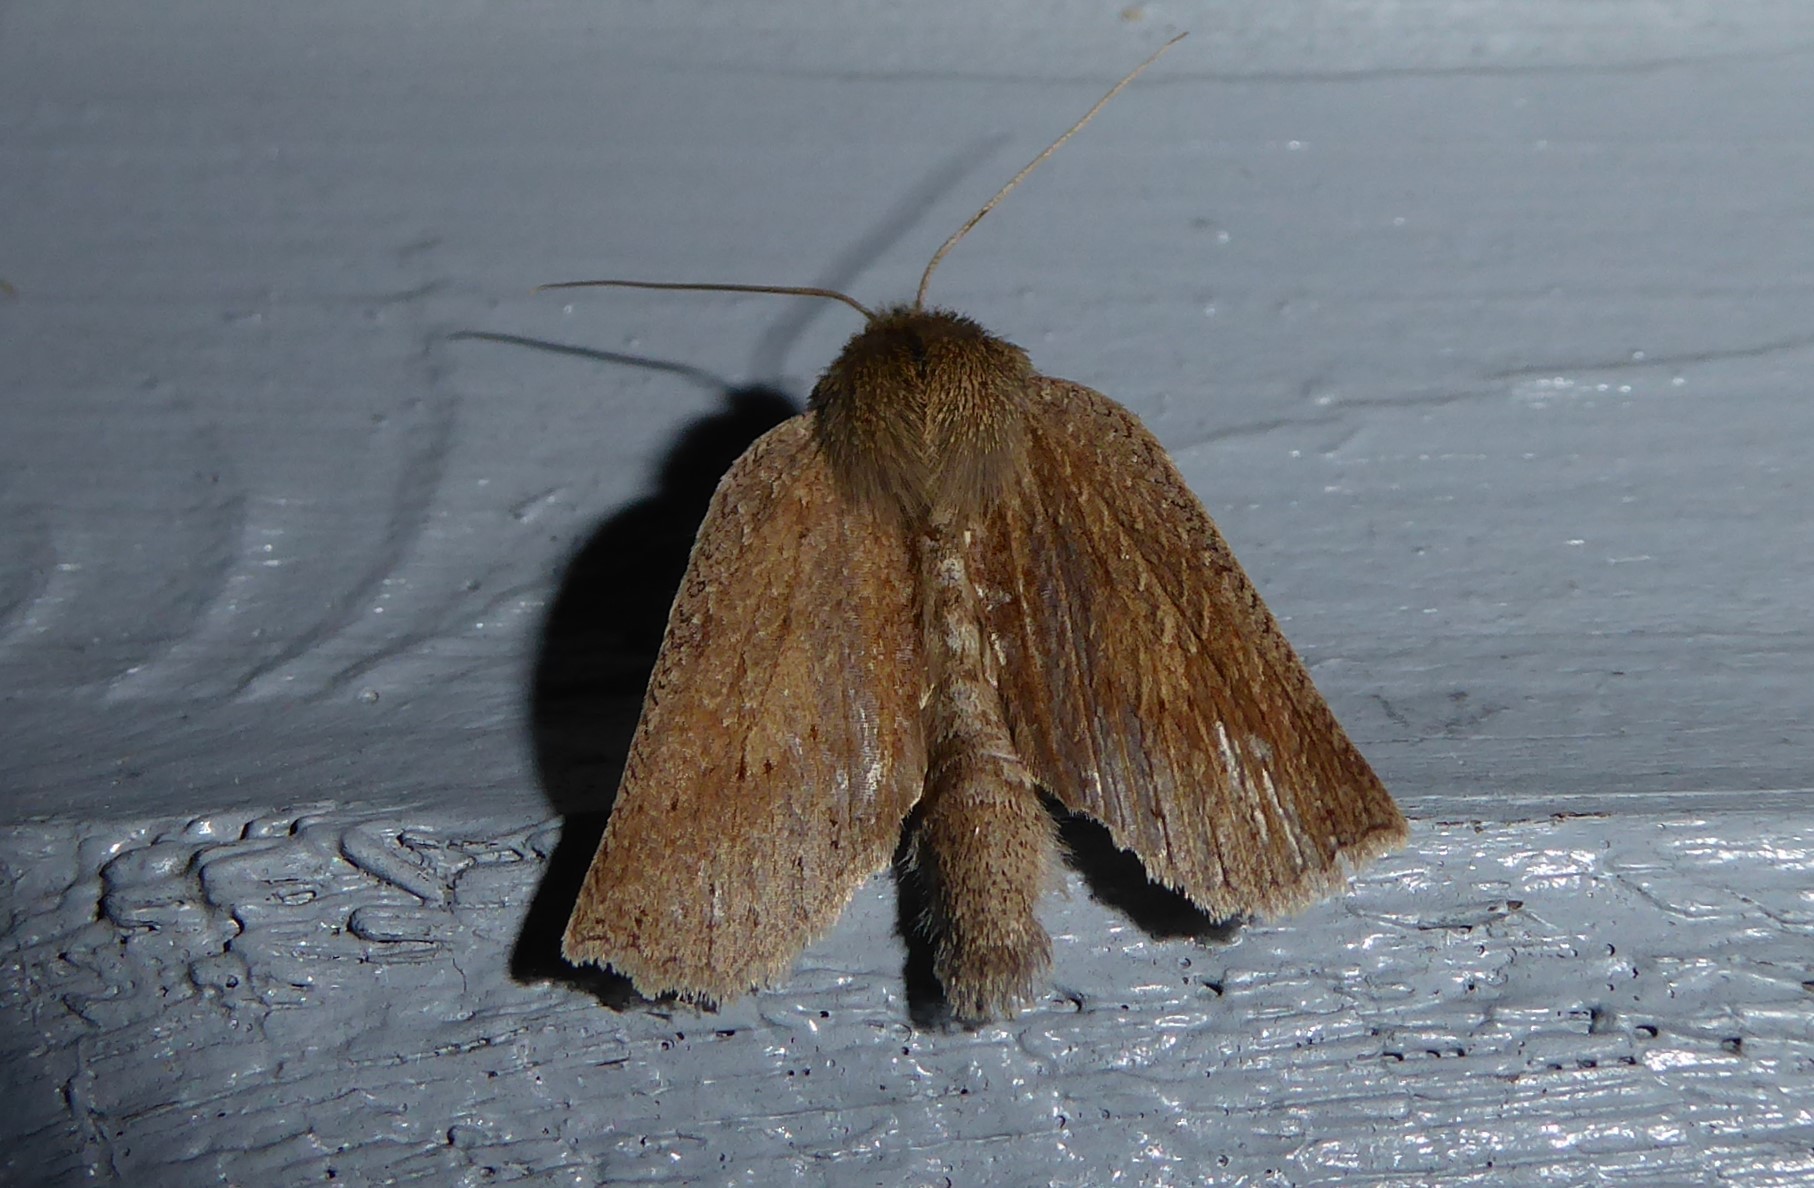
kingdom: Animalia
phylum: Arthropoda
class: Insecta
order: Lepidoptera
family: Geometridae
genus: Declana
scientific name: Declana leptomera
